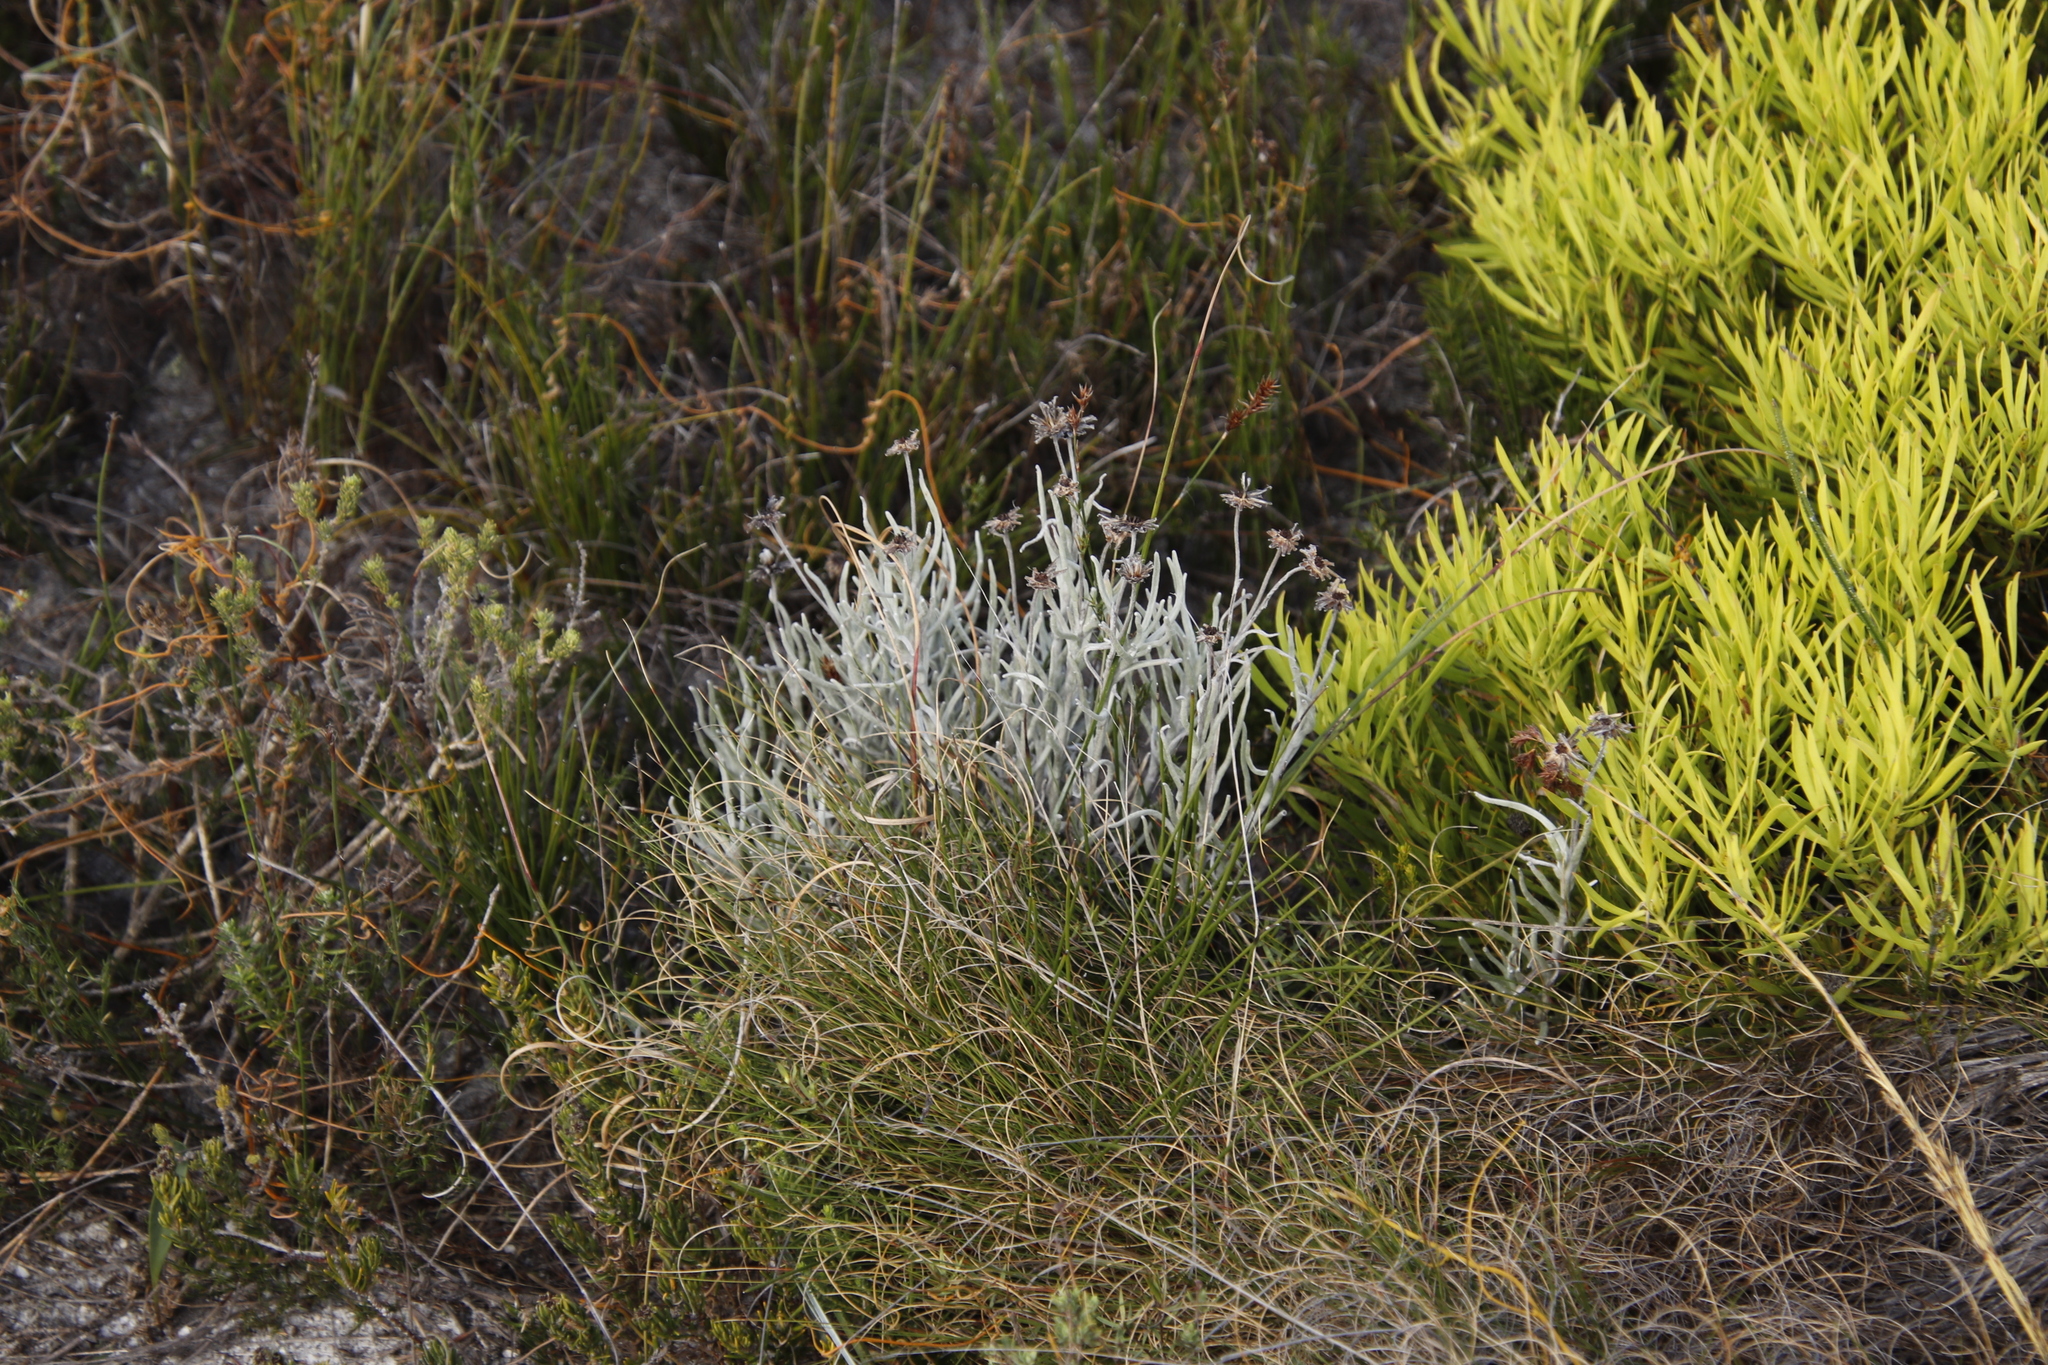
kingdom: Plantae
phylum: Tracheophyta
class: Magnoliopsida
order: Asterales
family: Asteraceae
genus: Syncarpha
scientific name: Syncarpha gnaphaloides
